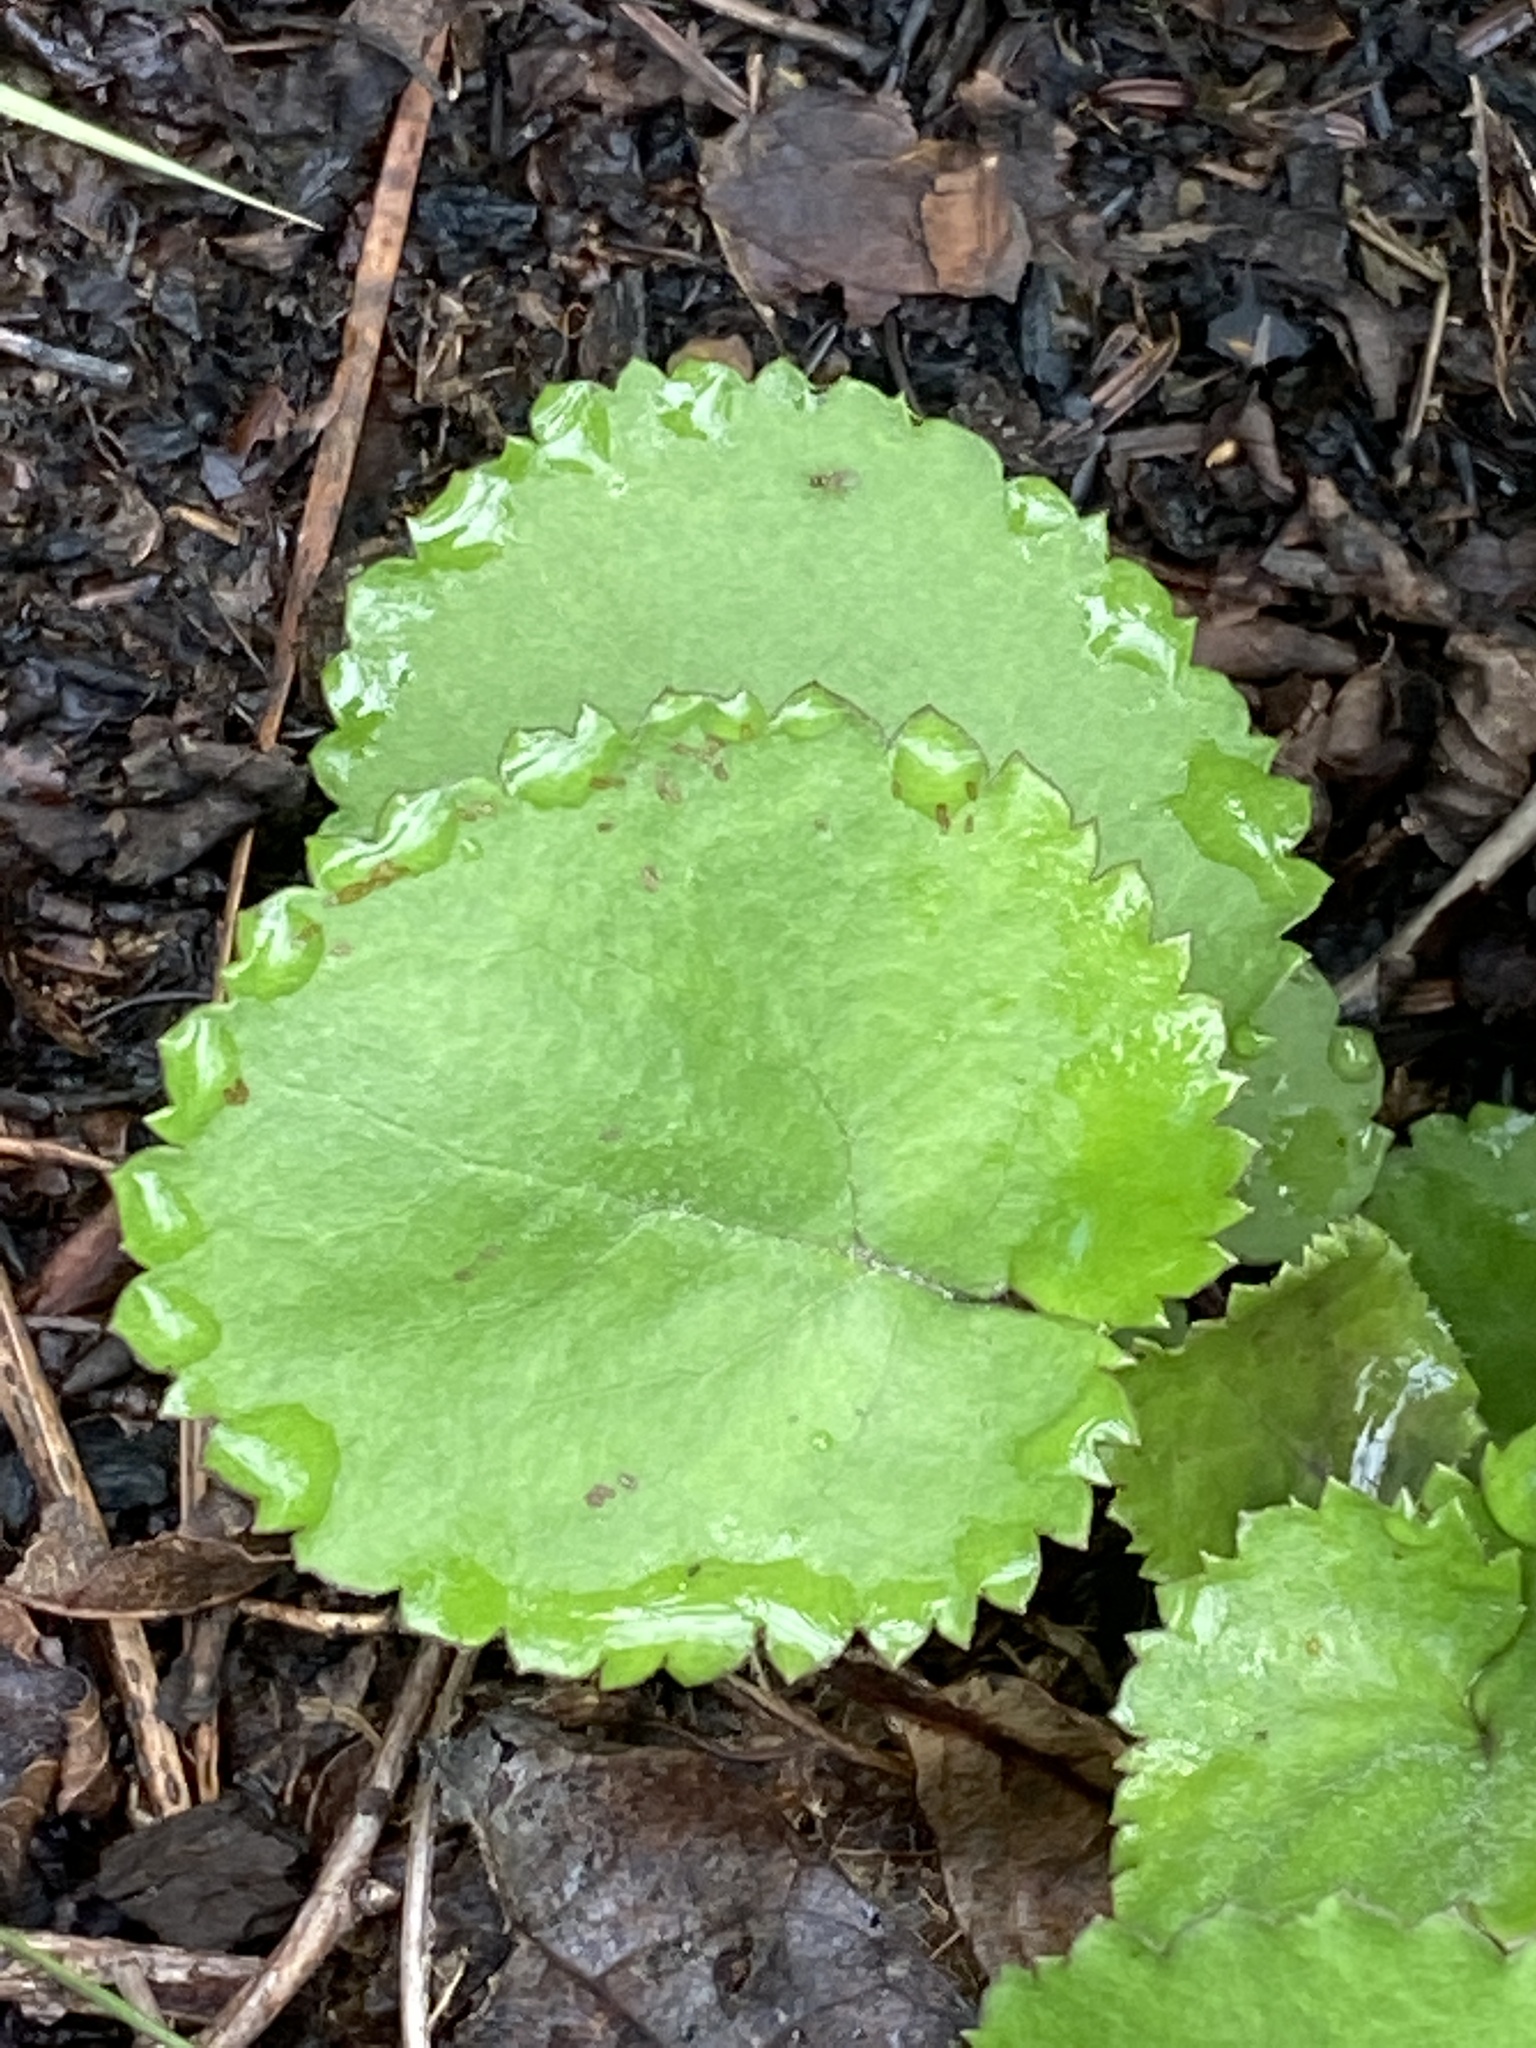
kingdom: Plantae
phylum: Tracheophyta
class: Magnoliopsida
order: Asterales
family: Asteraceae
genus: Packera
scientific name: Packera aurea
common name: Golden groundsel
